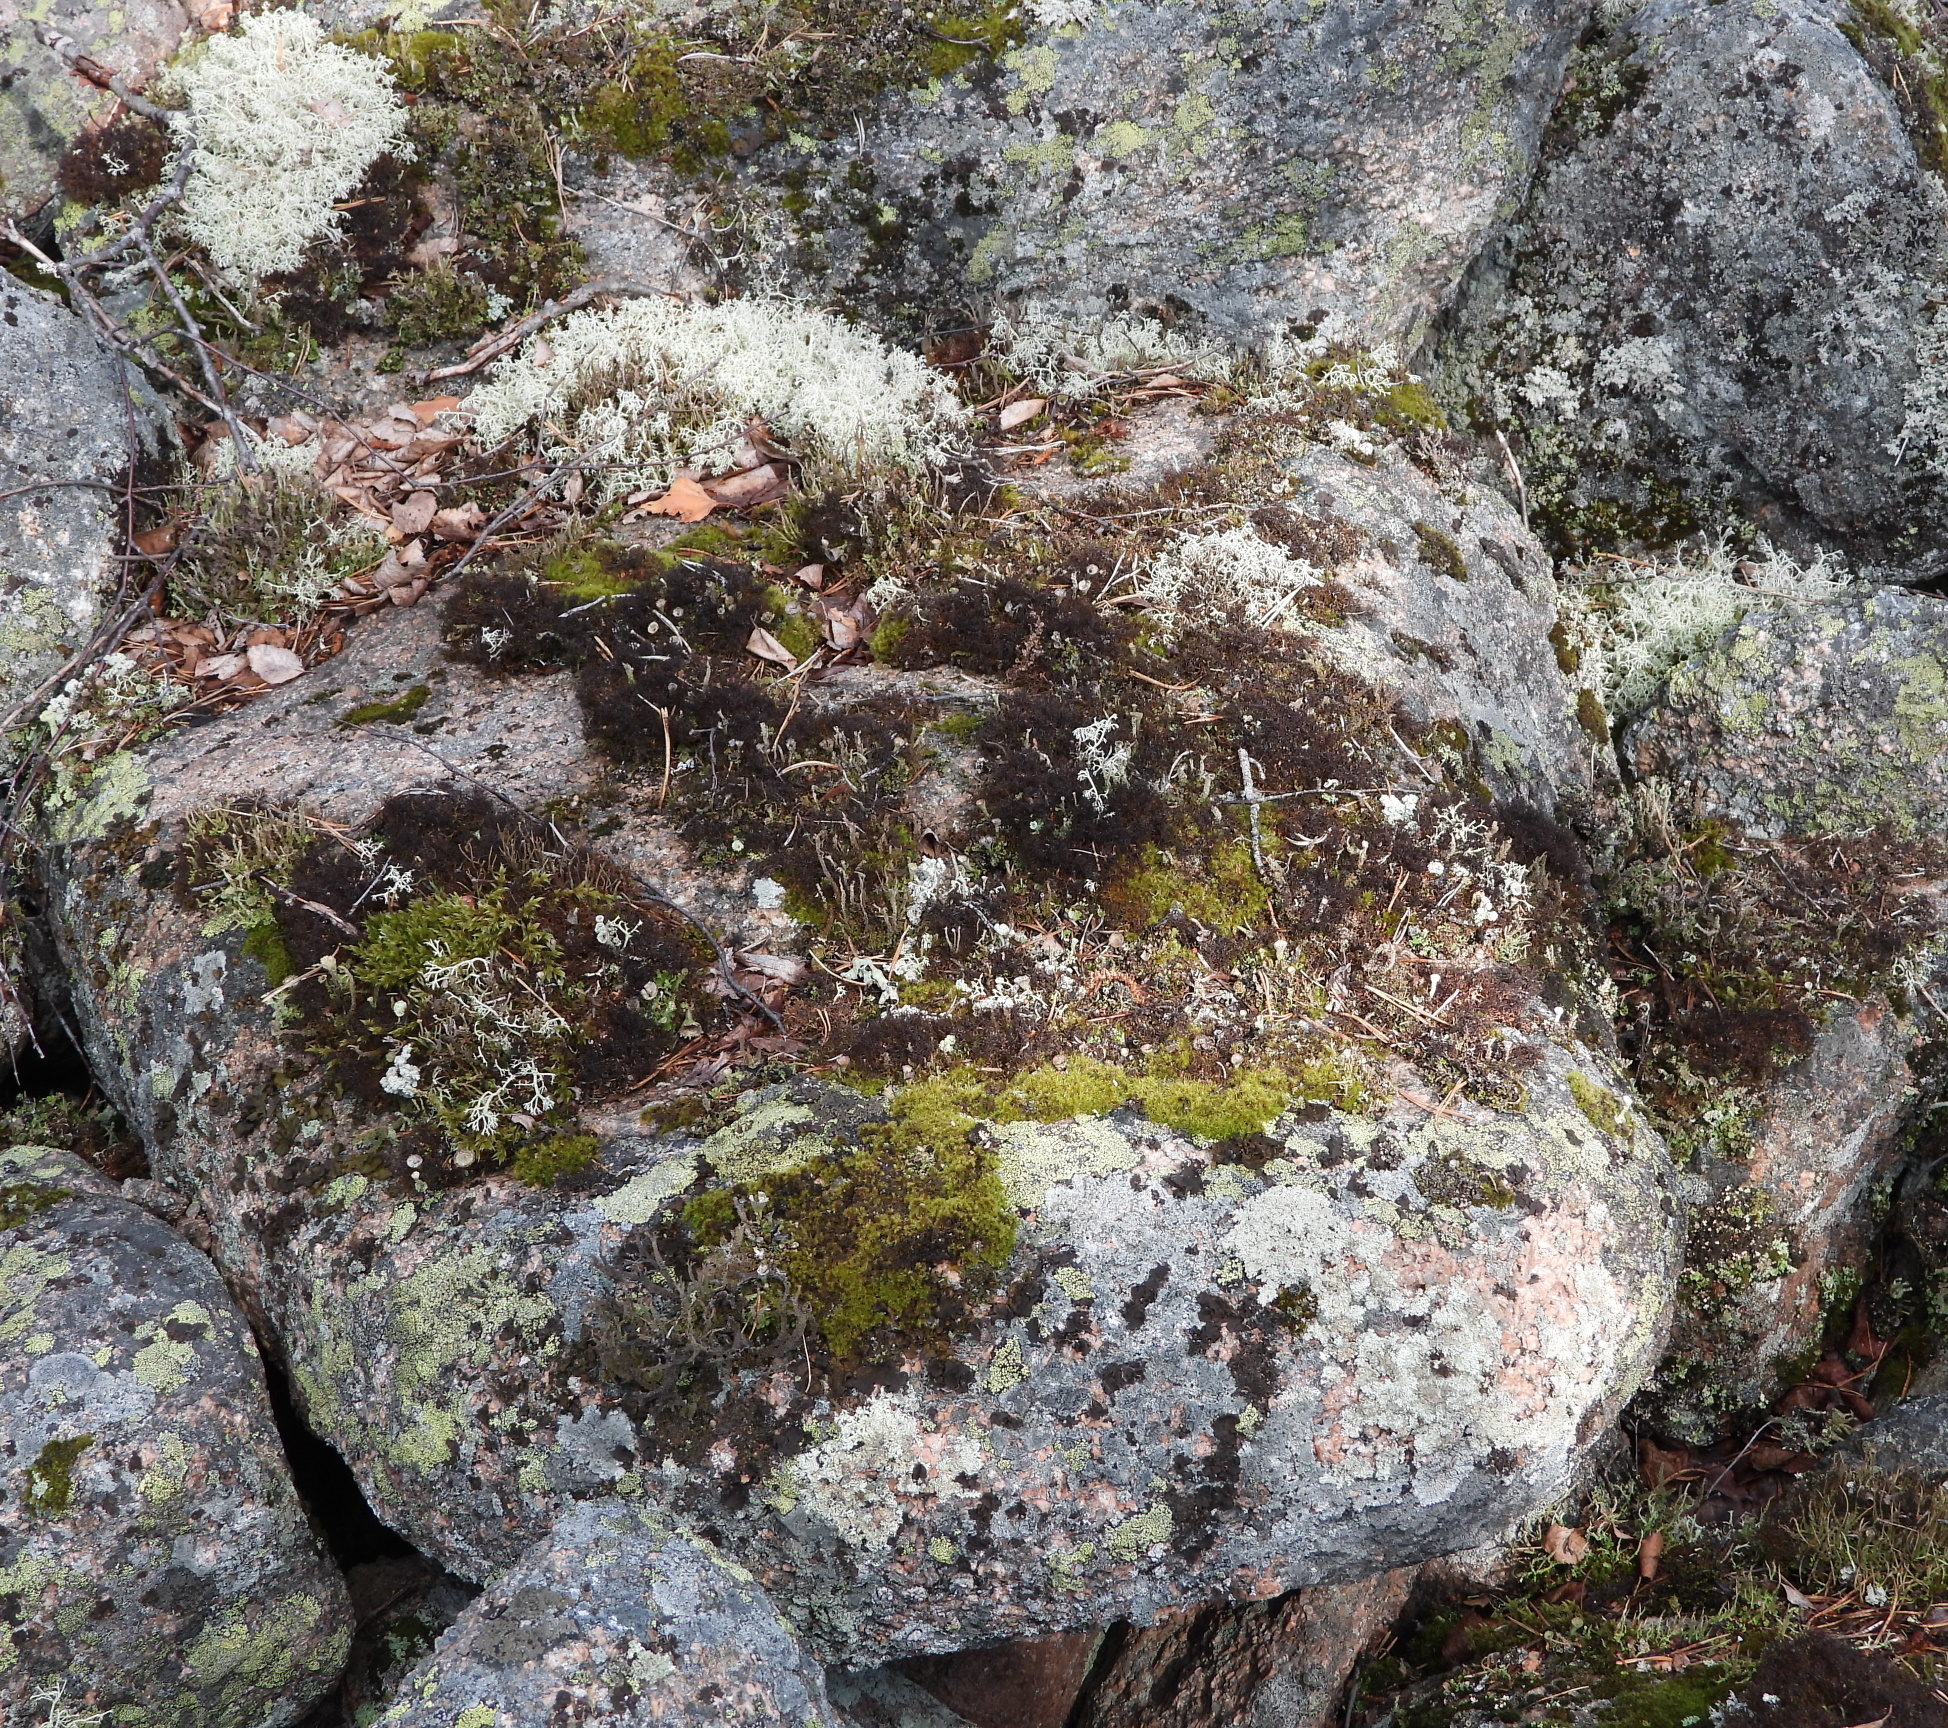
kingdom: Fungi
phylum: Ascomycota
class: Lecanoromycetes
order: Lecanorales
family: Parmeliaceae
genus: Cetraria
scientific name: Cetraria muricata
